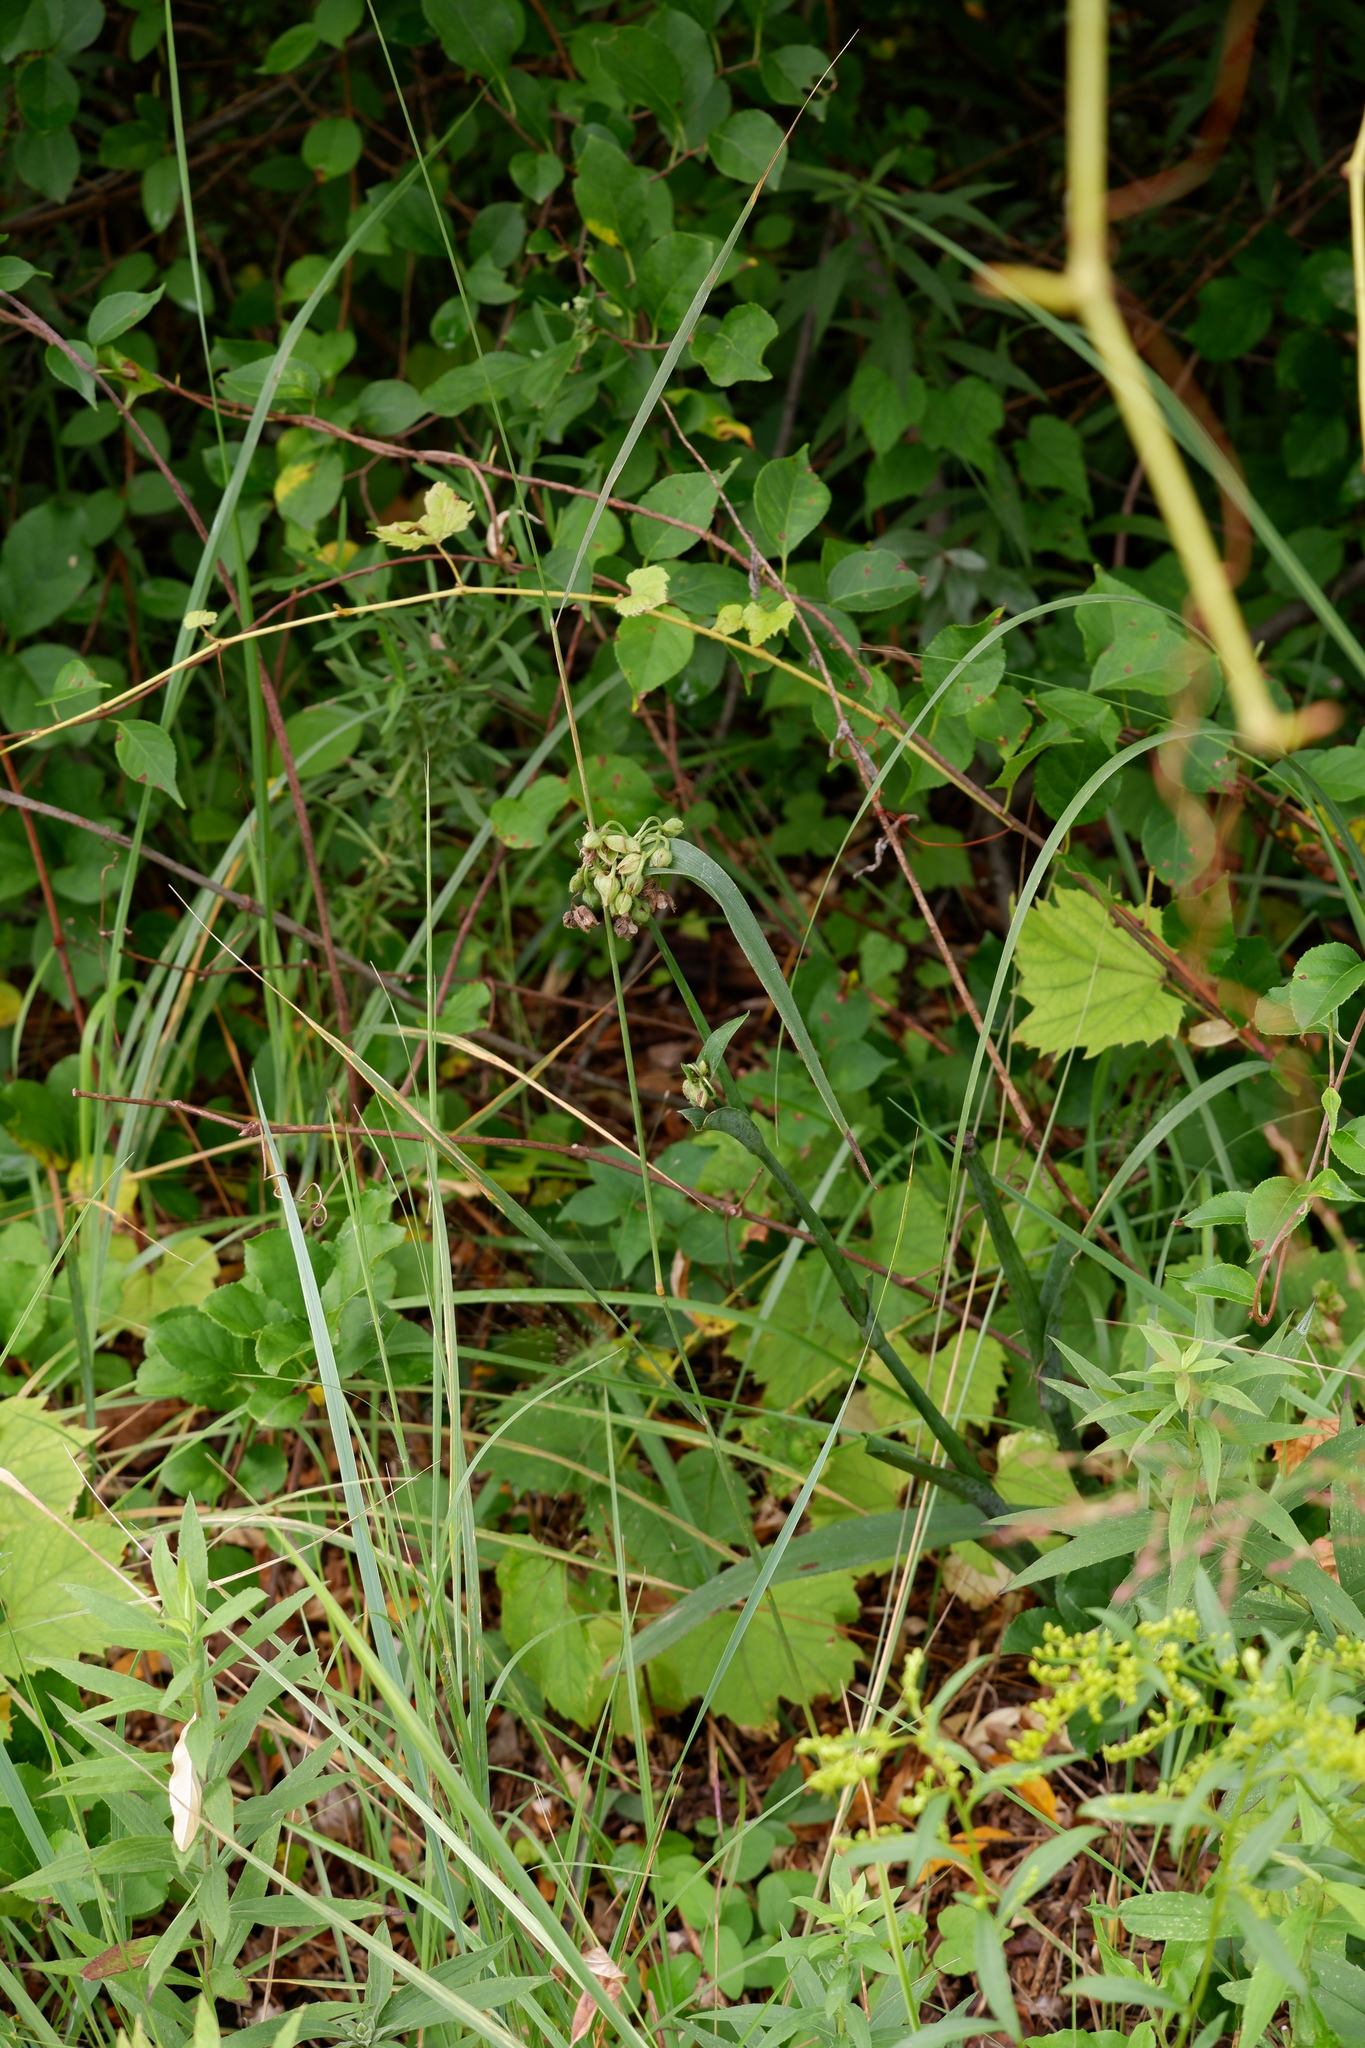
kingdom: Plantae
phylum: Tracheophyta
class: Liliopsida
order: Commelinales
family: Commelinaceae
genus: Tradescantia
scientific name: Tradescantia virginiana
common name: Spiderwort
